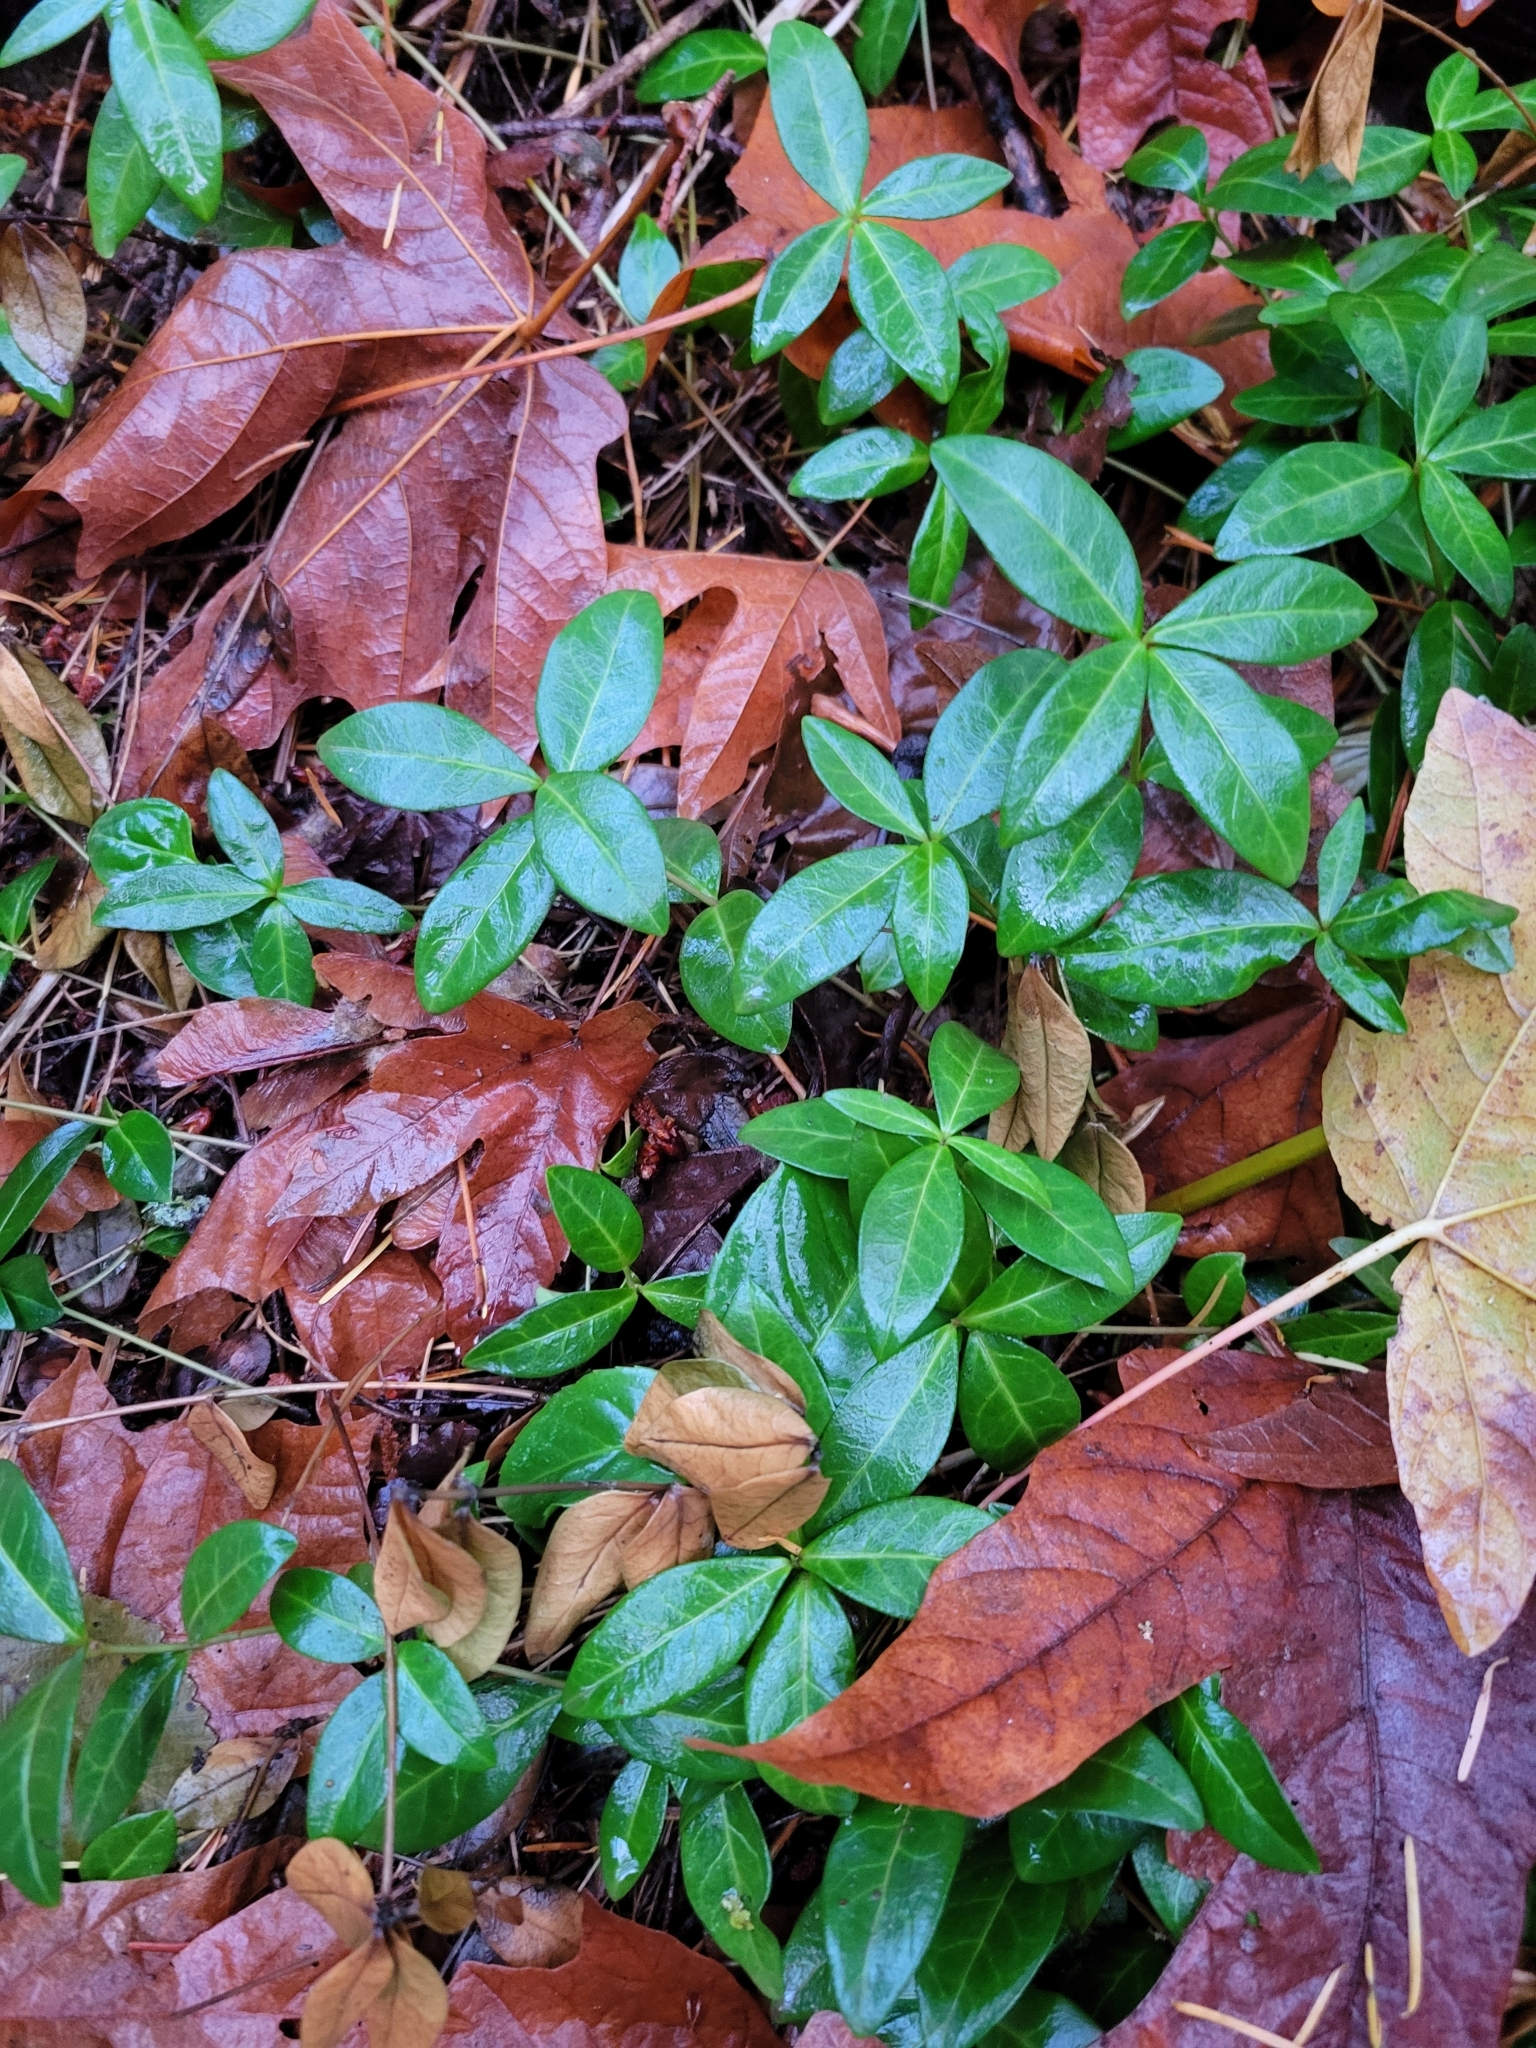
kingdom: Plantae
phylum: Tracheophyta
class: Magnoliopsida
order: Gentianales
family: Apocynaceae
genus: Vinca
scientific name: Vinca minor
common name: Lesser periwinkle
